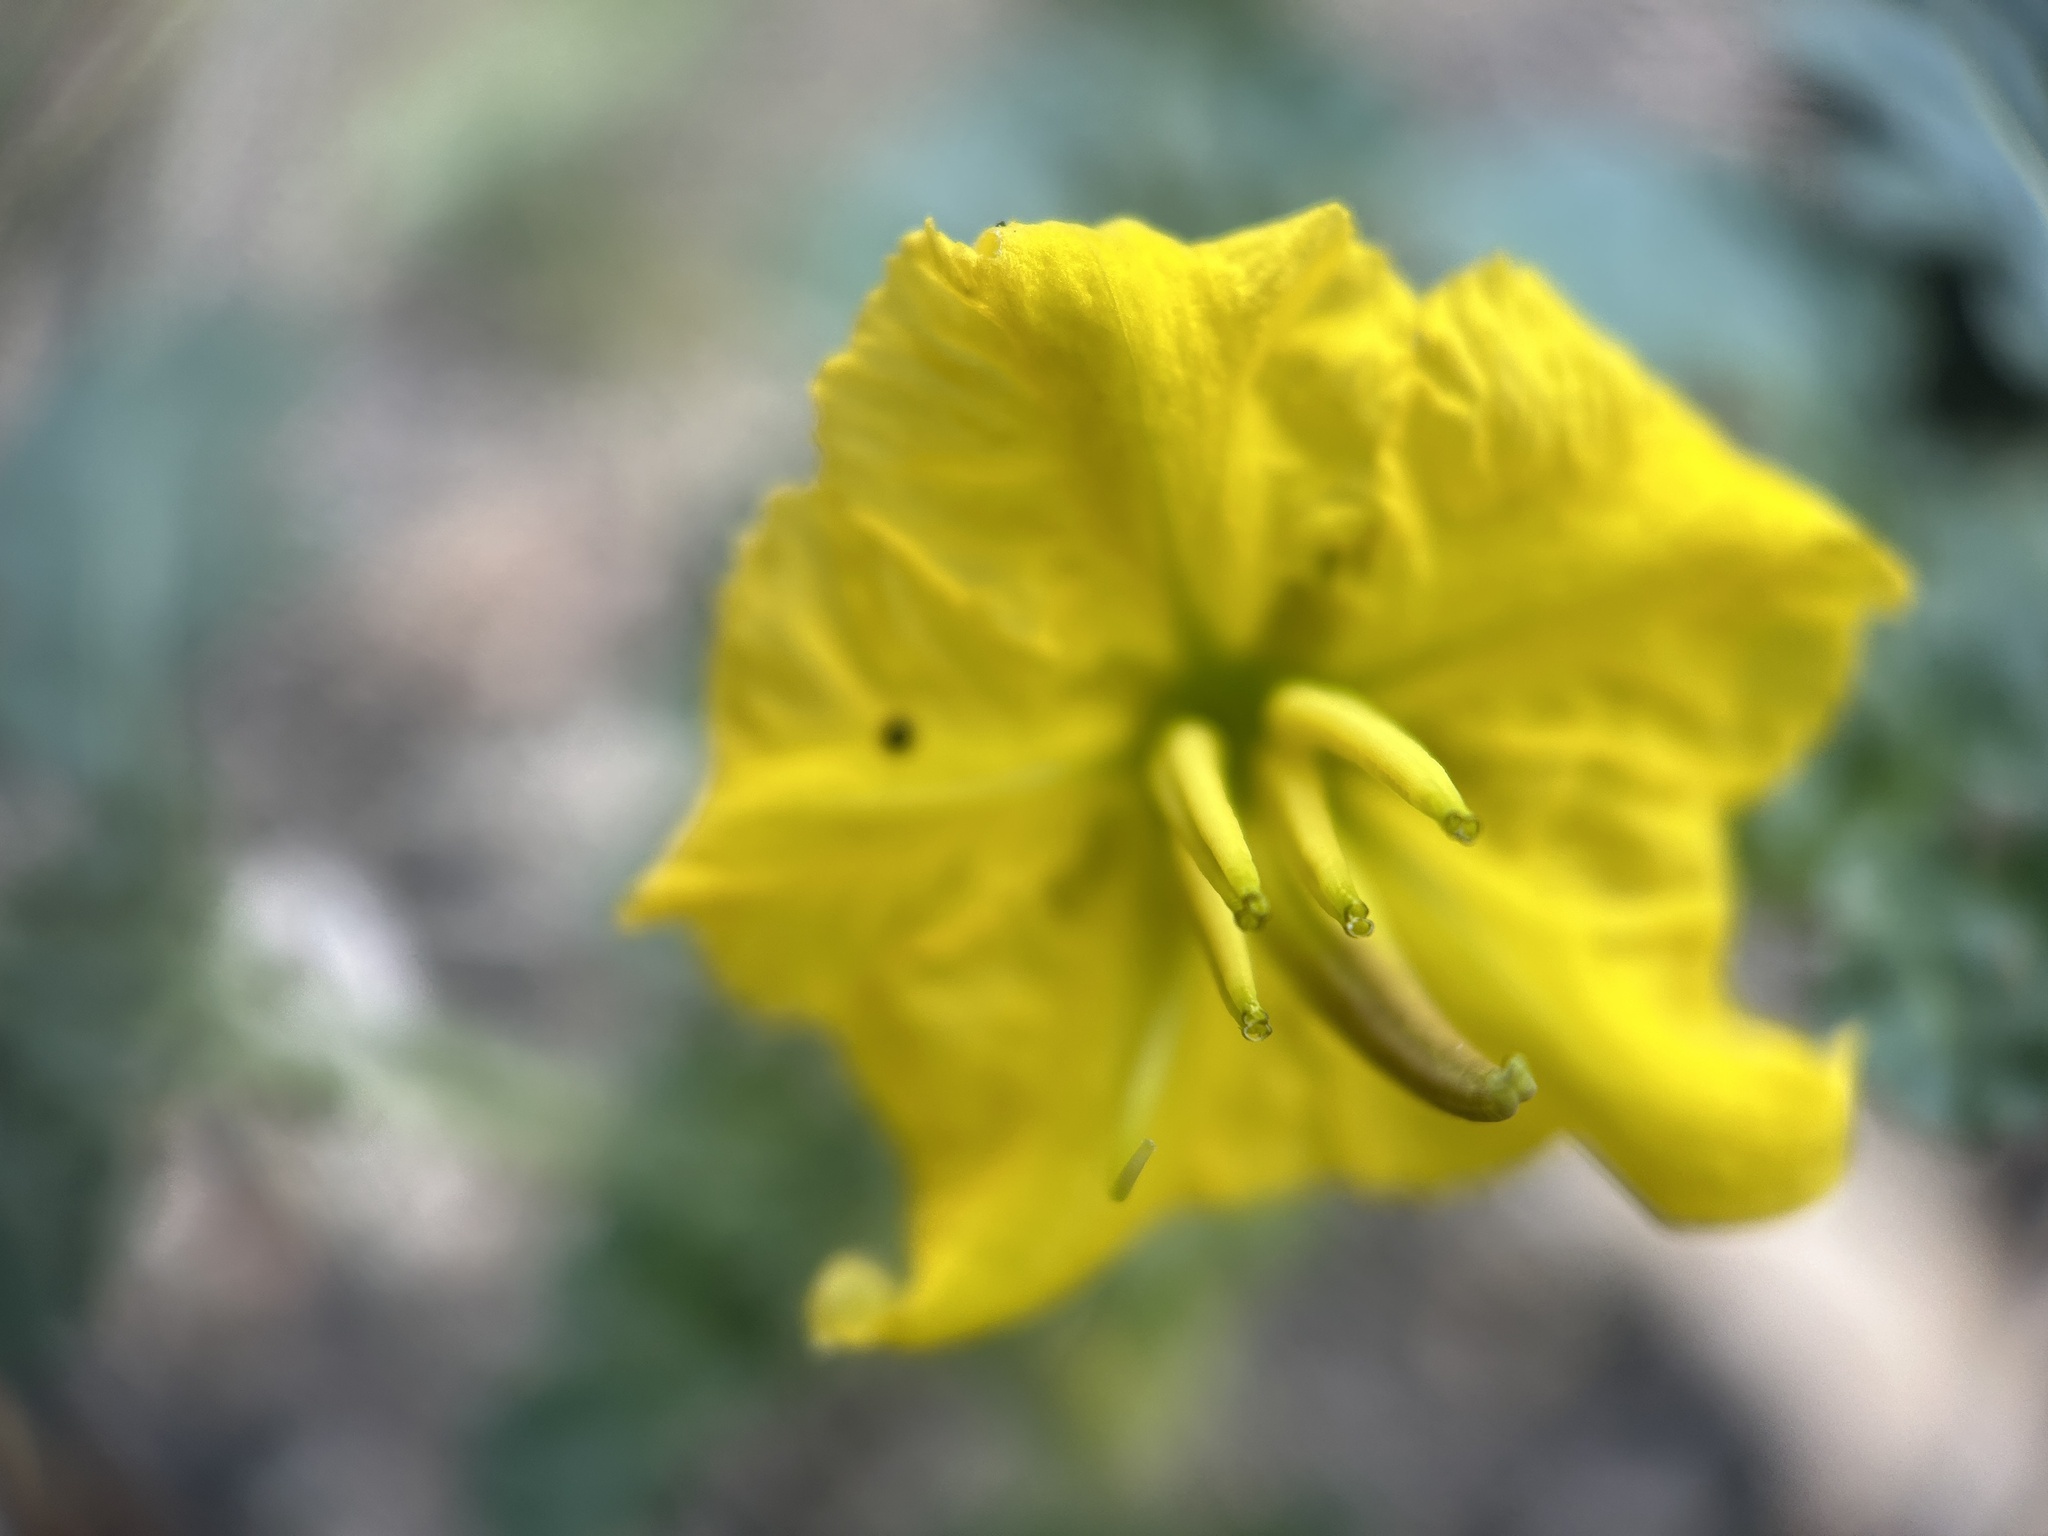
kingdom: Plantae
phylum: Tracheophyta
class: Magnoliopsida
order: Solanales
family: Solanaceae
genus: Solanum
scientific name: Solanum angustifolium
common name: Buffalobur nightshade
